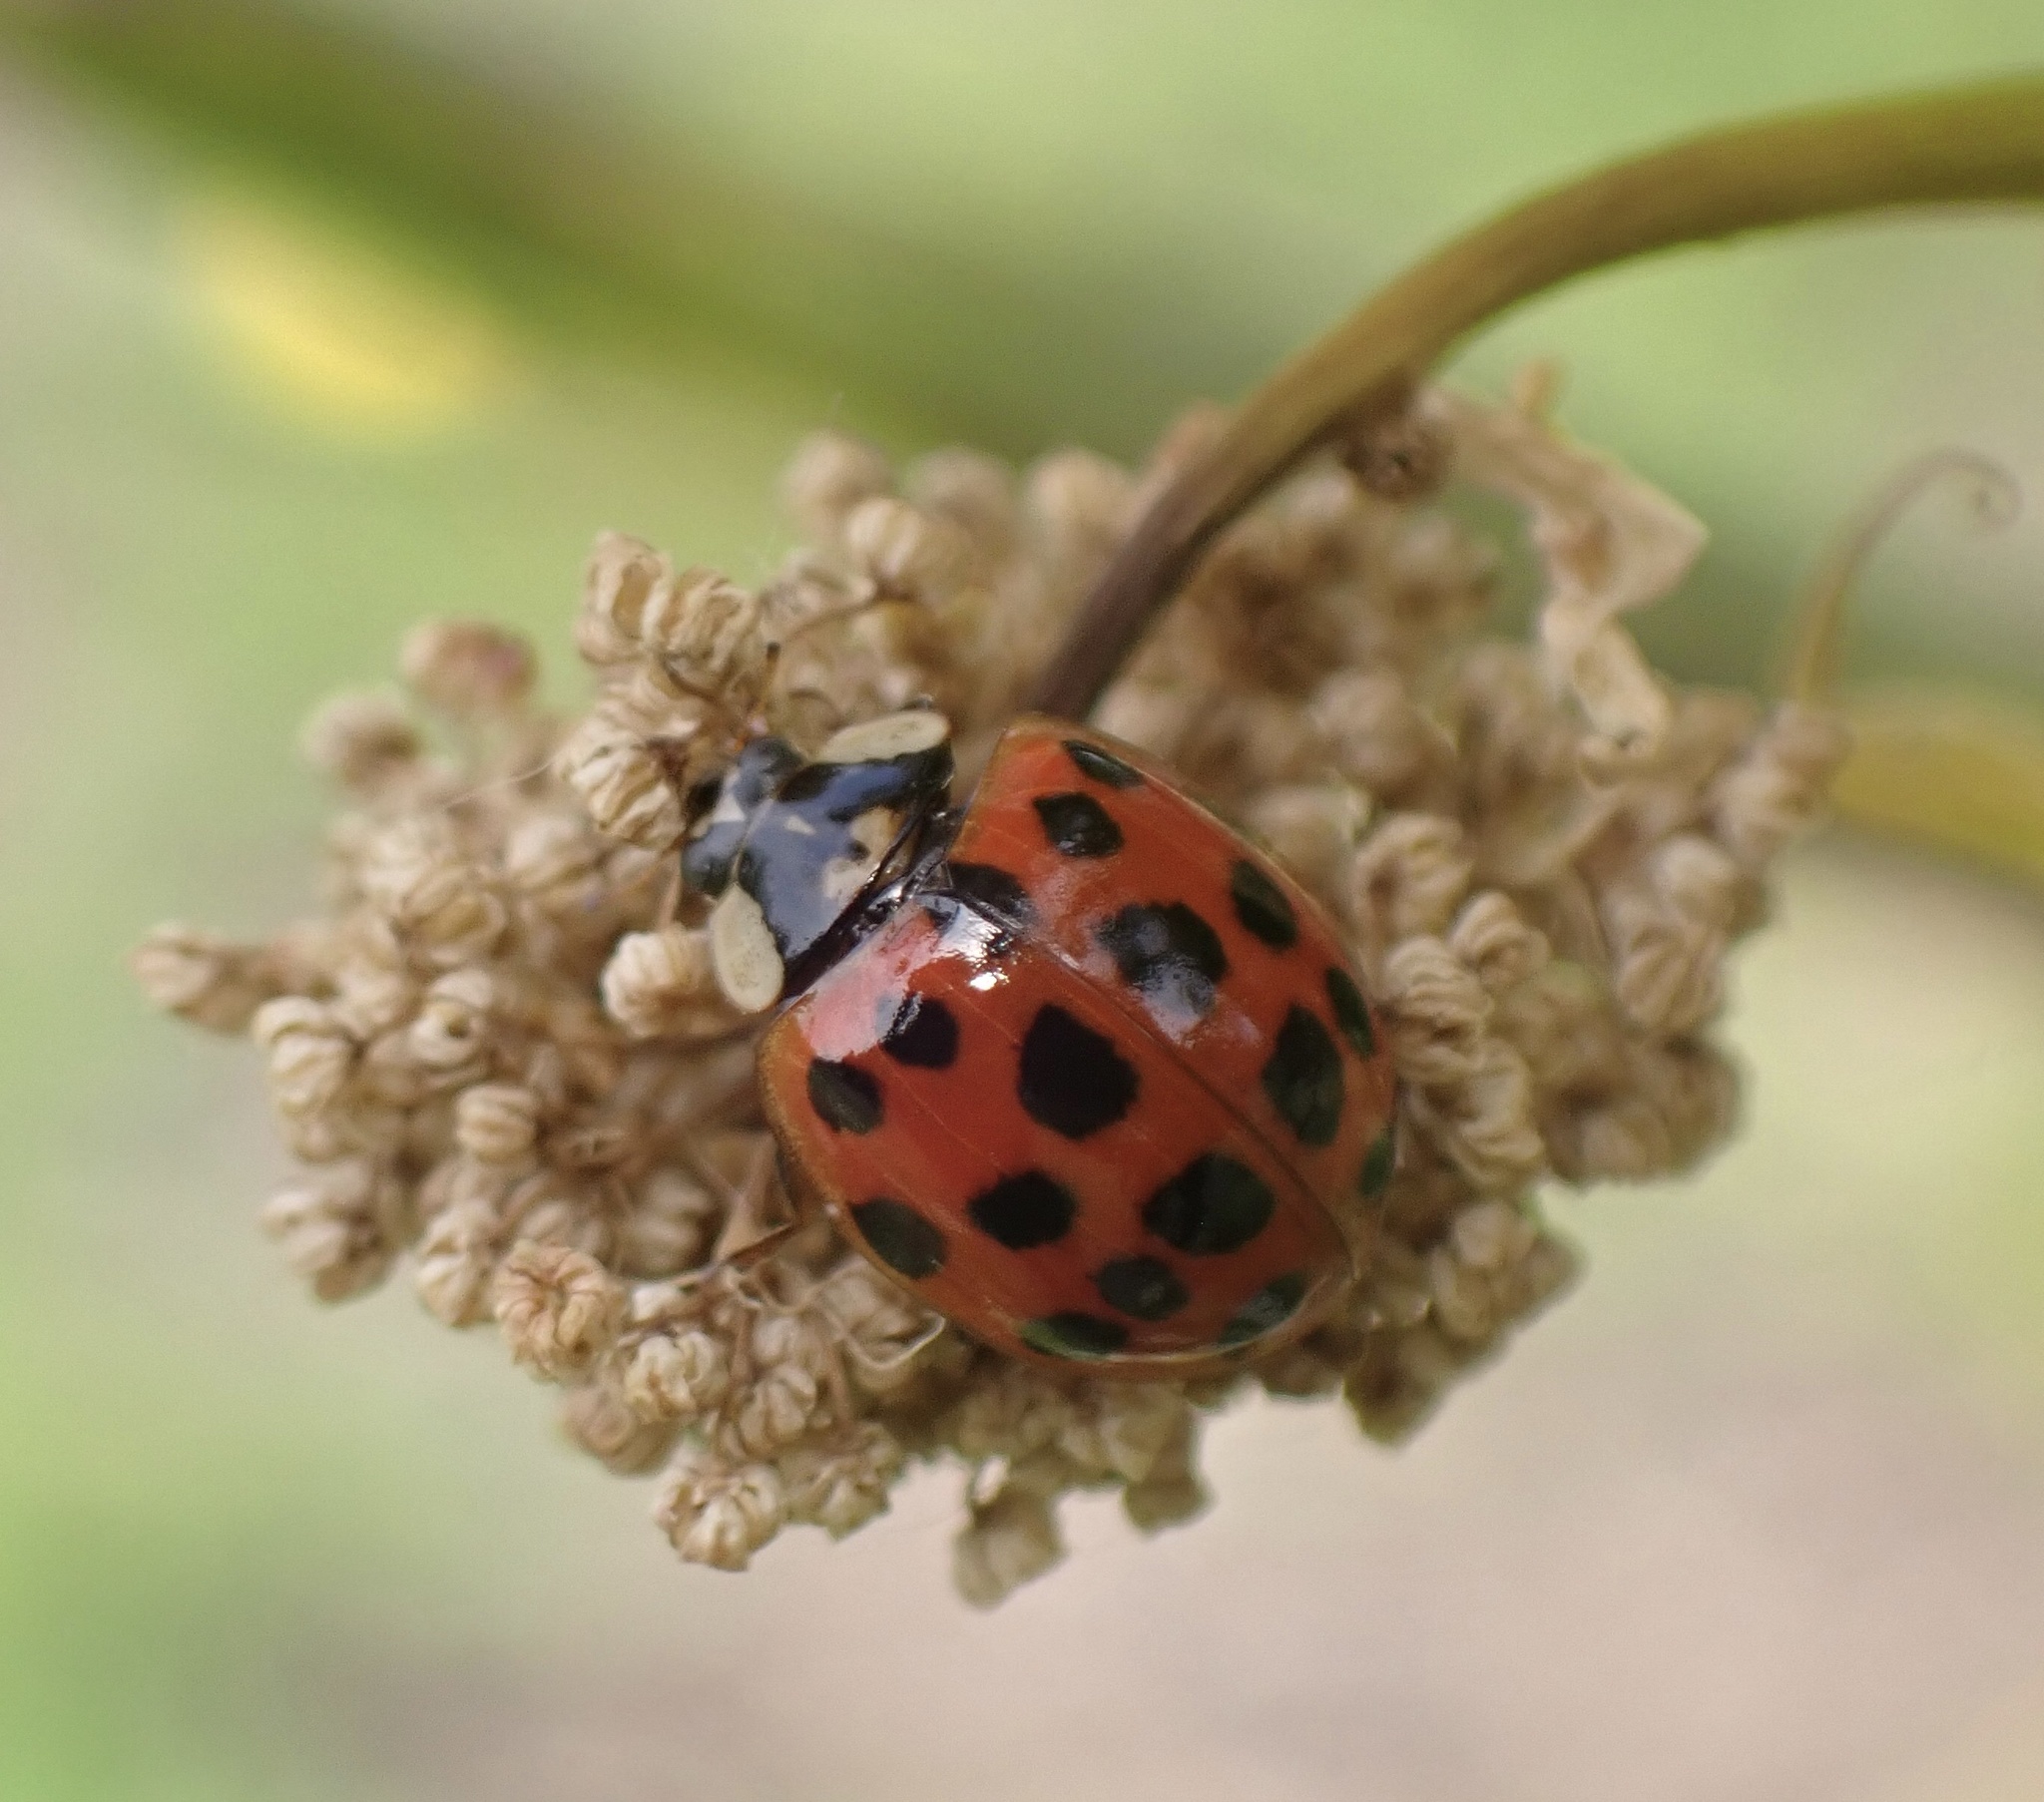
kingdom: Animalia
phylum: Arthropoda
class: Insecta
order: Coleoptera
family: Coccinellidae
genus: Harmonia
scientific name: Harmonia axyridis
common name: Harlequin ladybird
